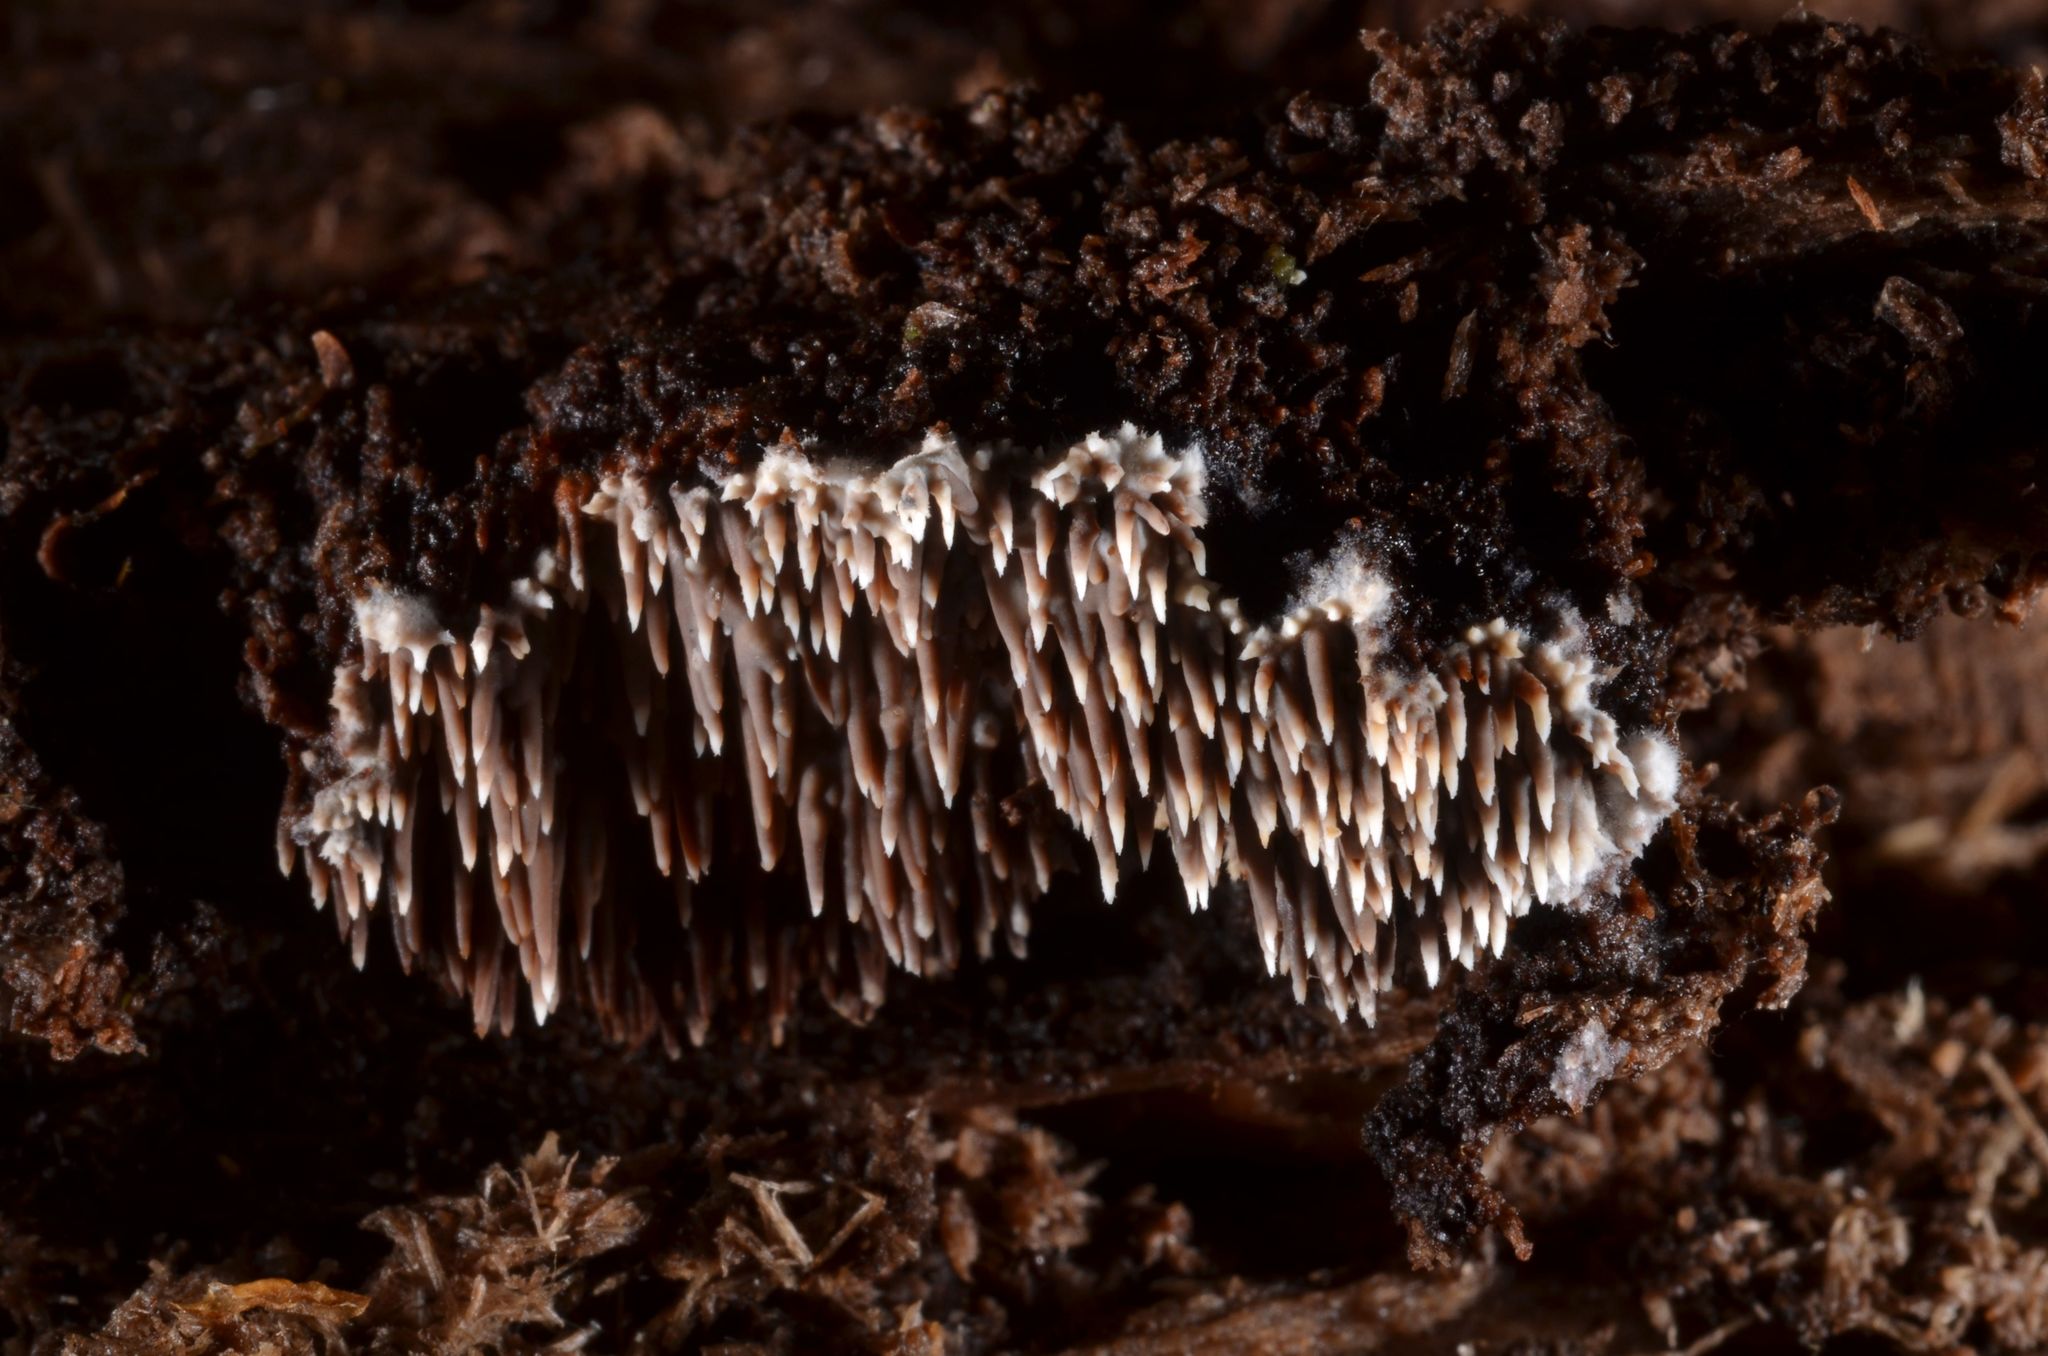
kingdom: Fungi
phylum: Basidiomycota
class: Agaricomycetes
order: Polyporales
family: Meruliaceae
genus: Mycoacia
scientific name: Mycoacia fuscoatra
